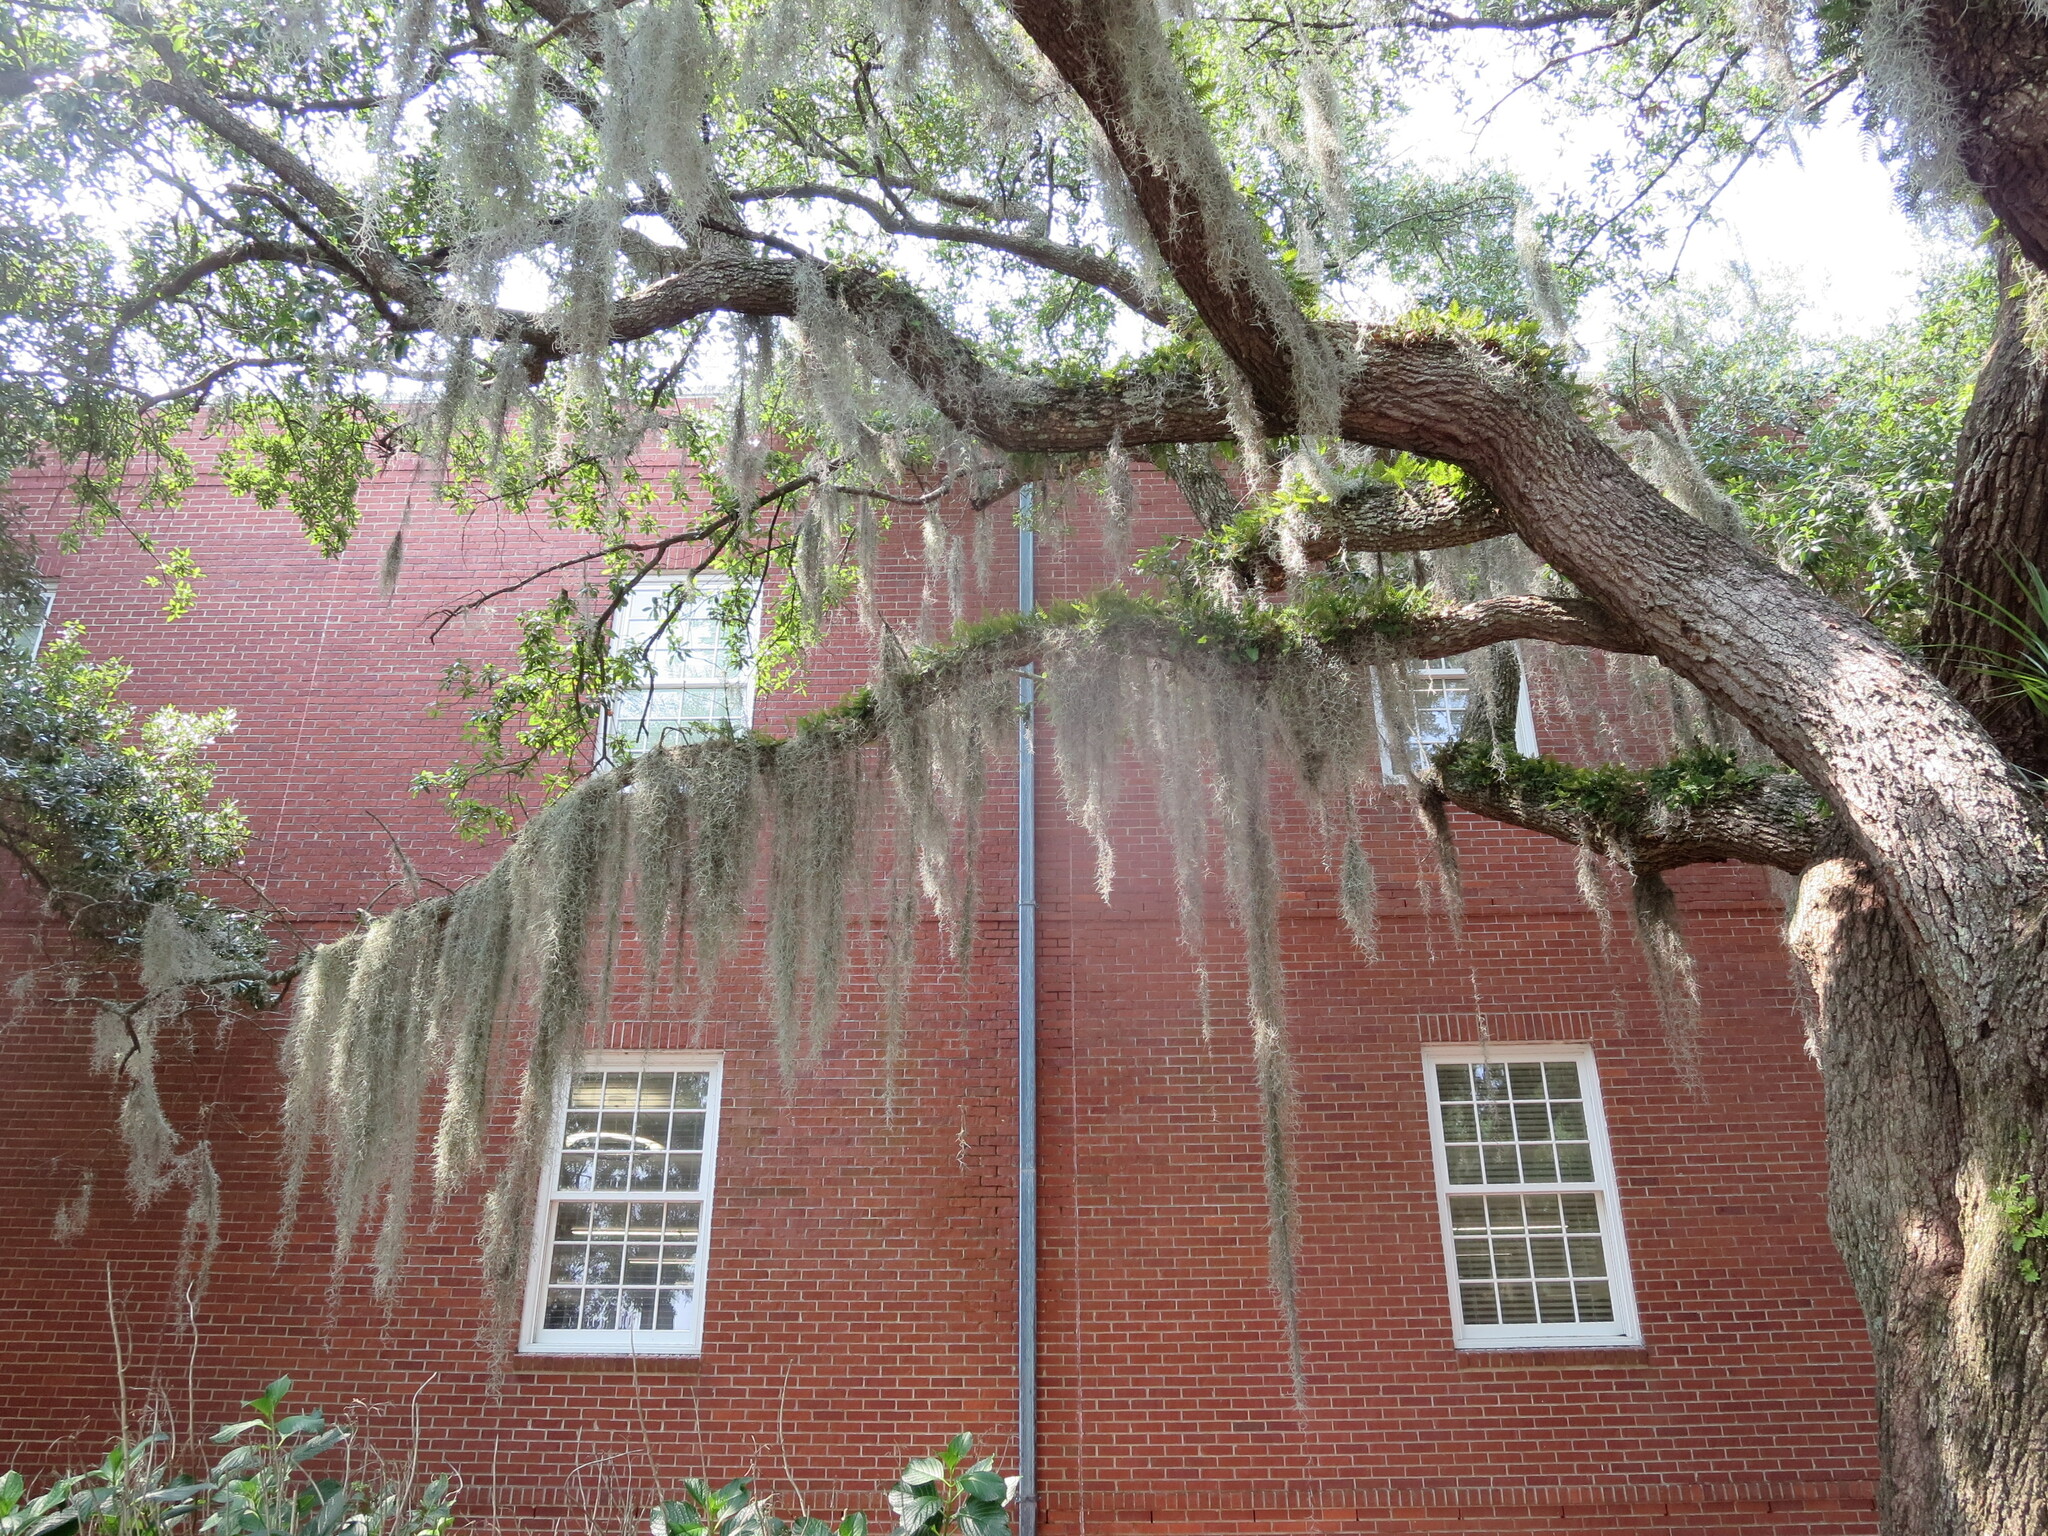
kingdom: Plantae
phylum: Tracheophyta
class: Polypodiopsida
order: Polypodiales
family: Polypodiaceae
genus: Pleopeltis
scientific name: Pleopeltis michauxiana
